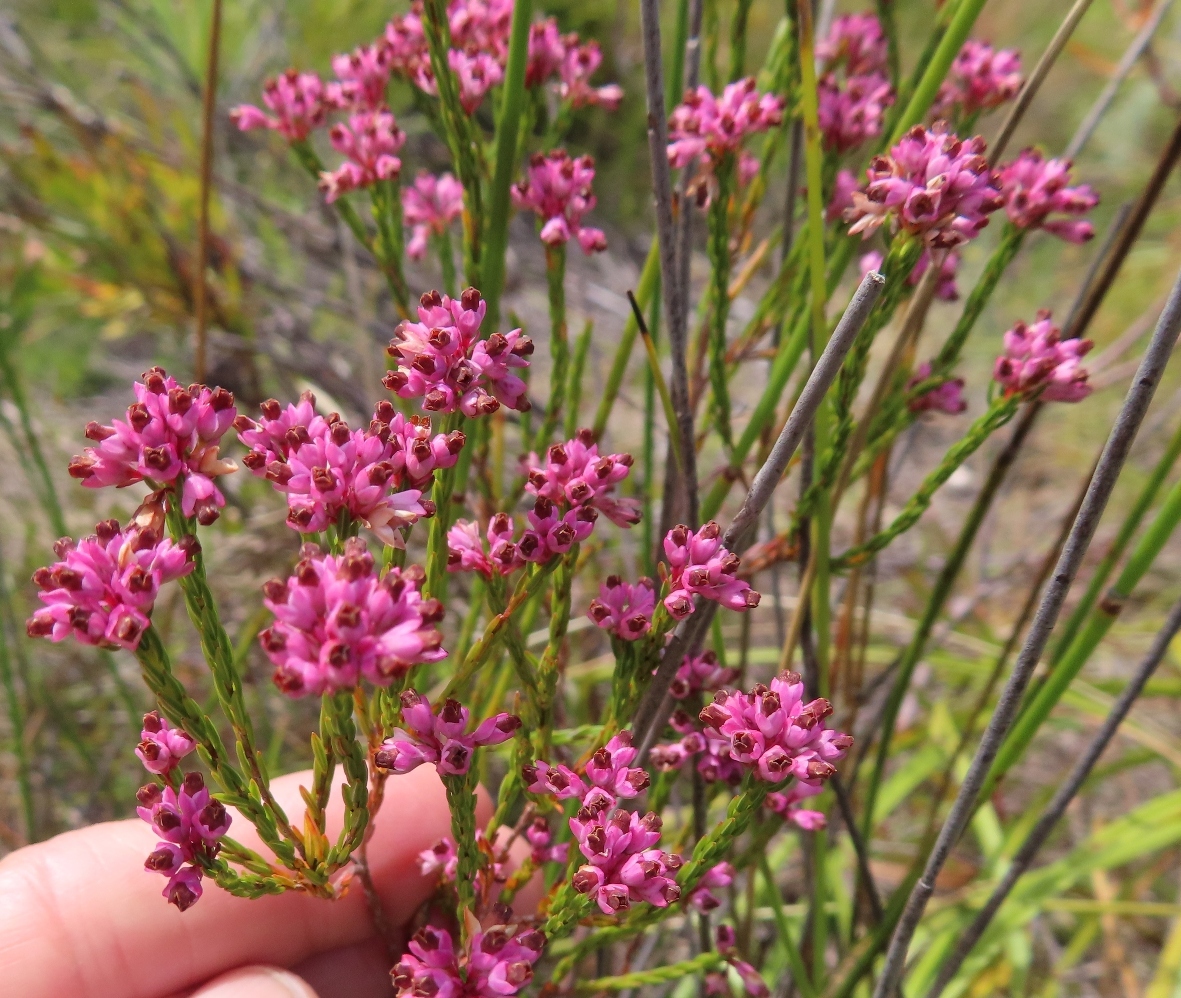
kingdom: Plantae
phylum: Tracheophyta
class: Magnoliopsida
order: Ericales
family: Ericaceae
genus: Erica
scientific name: Erica corifolia
